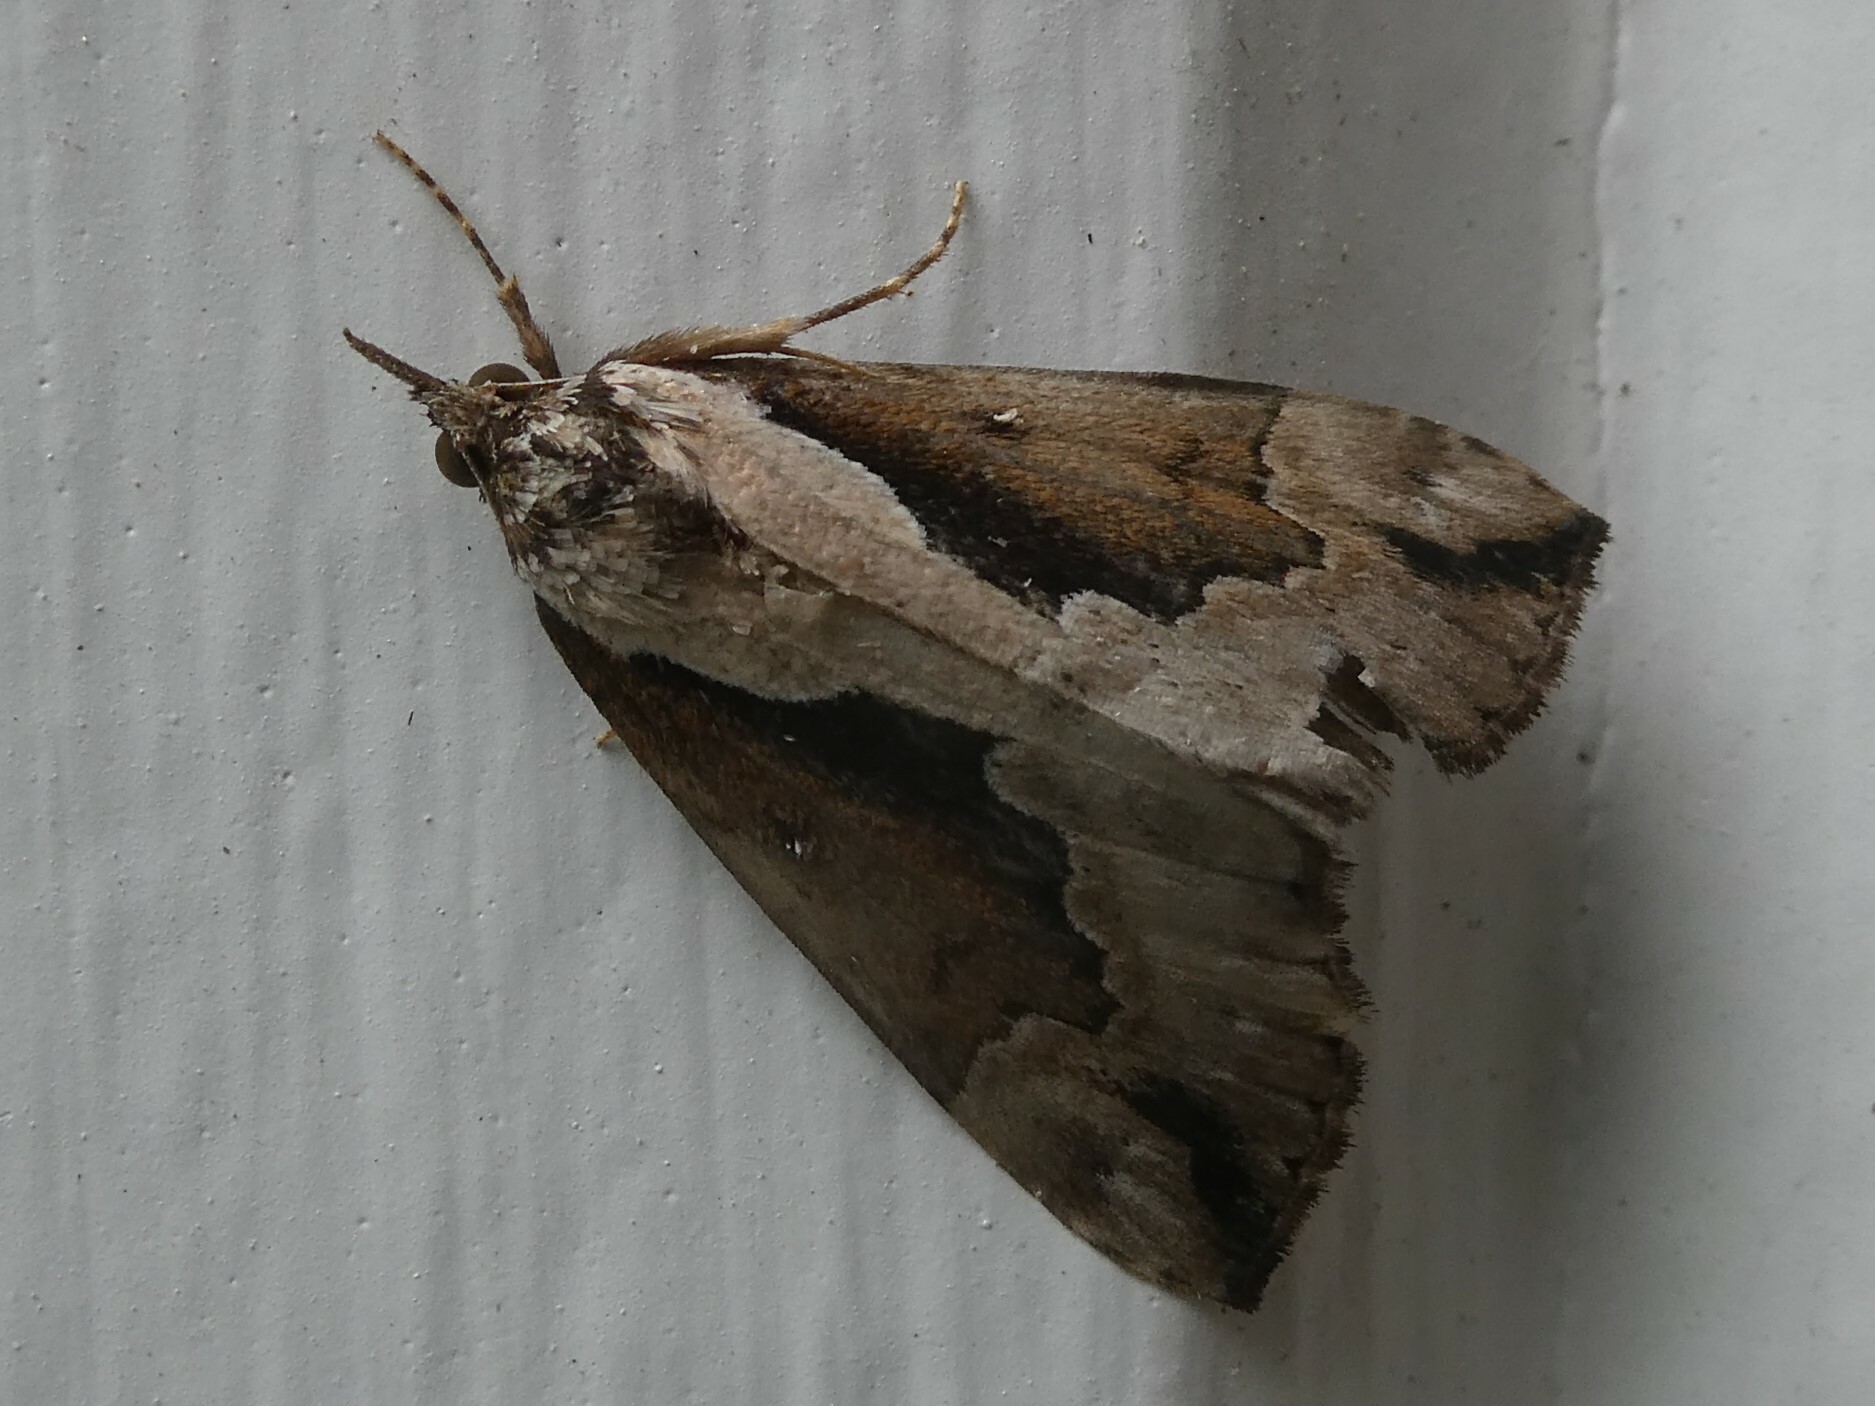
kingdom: Animalia
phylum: Arthropoda
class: Insecta
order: Lepidoptera
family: Erebidae
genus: Hypena
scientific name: Hypena baltimoralis
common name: Baltimore snout
